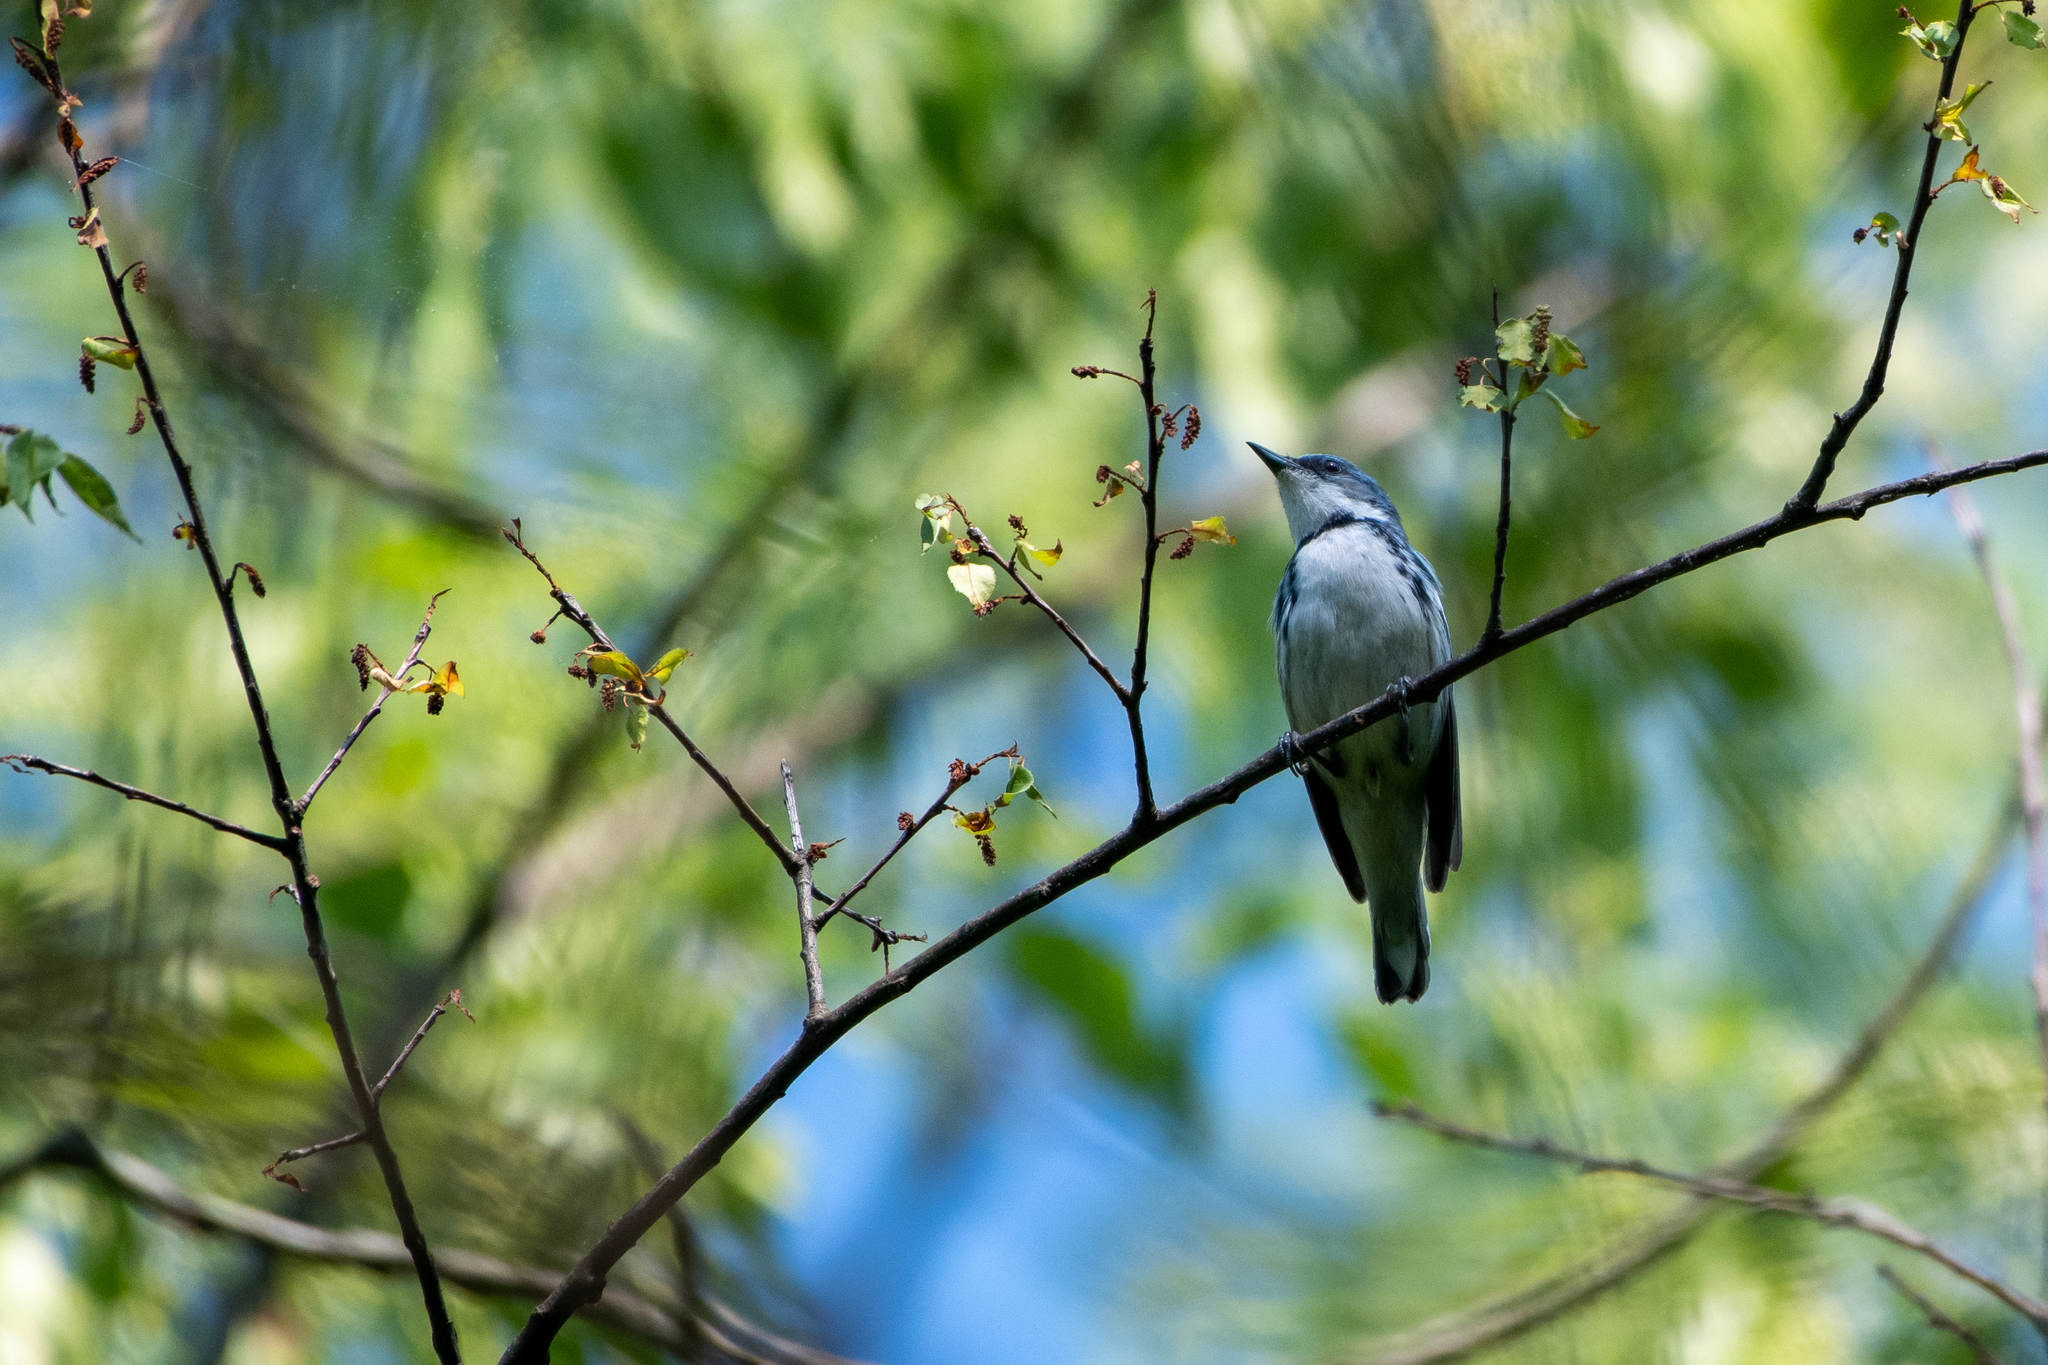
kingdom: Animalia
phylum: Chordata
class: Aves
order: Passeriformes
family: Parulidae
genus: Setophaga
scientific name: Setophaga cerulea
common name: Cerulean warbler
